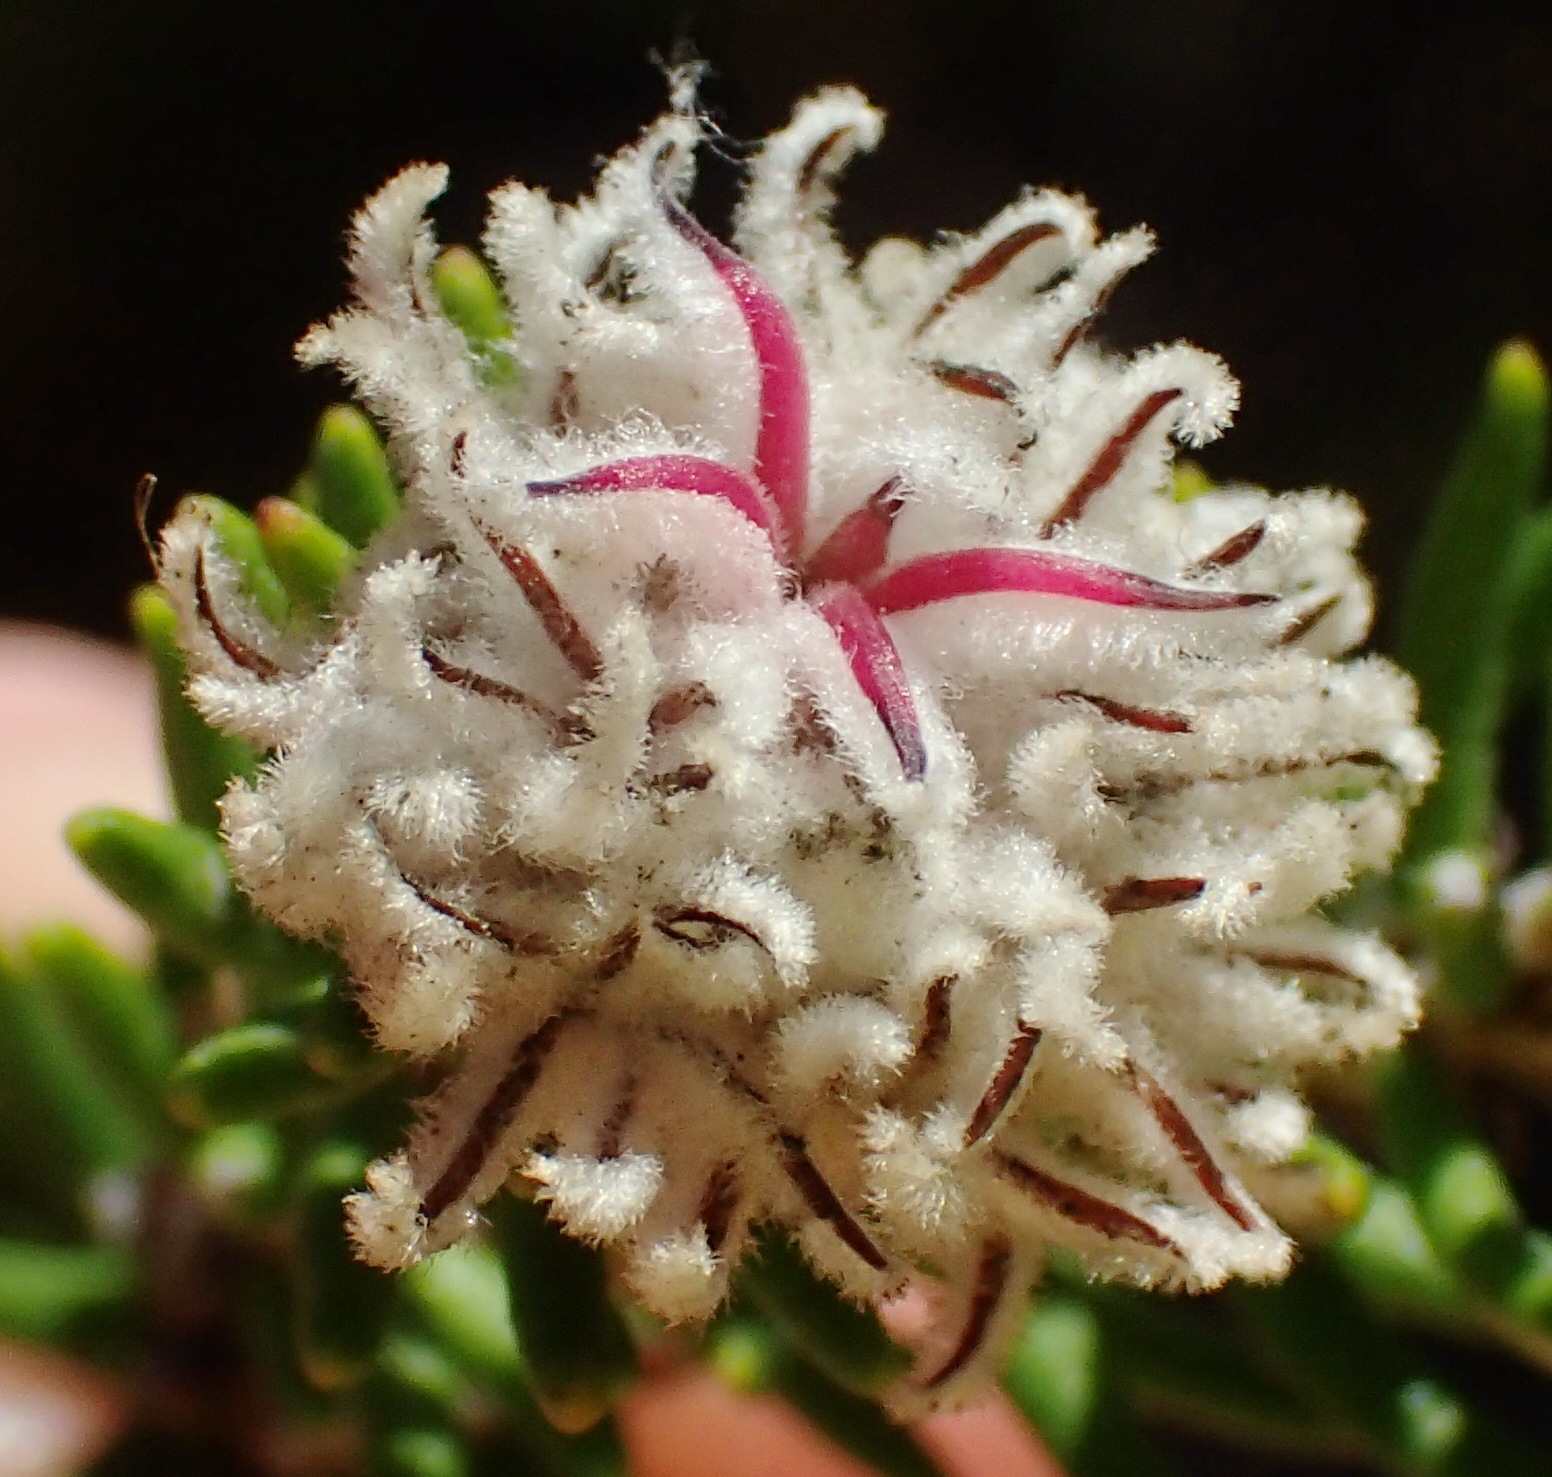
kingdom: Plantae
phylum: Tracheophyta
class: Magnoliopsida
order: Rosales
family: Rhamnaceae
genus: Trichocephalus
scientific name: Trichocephalus stipularis
